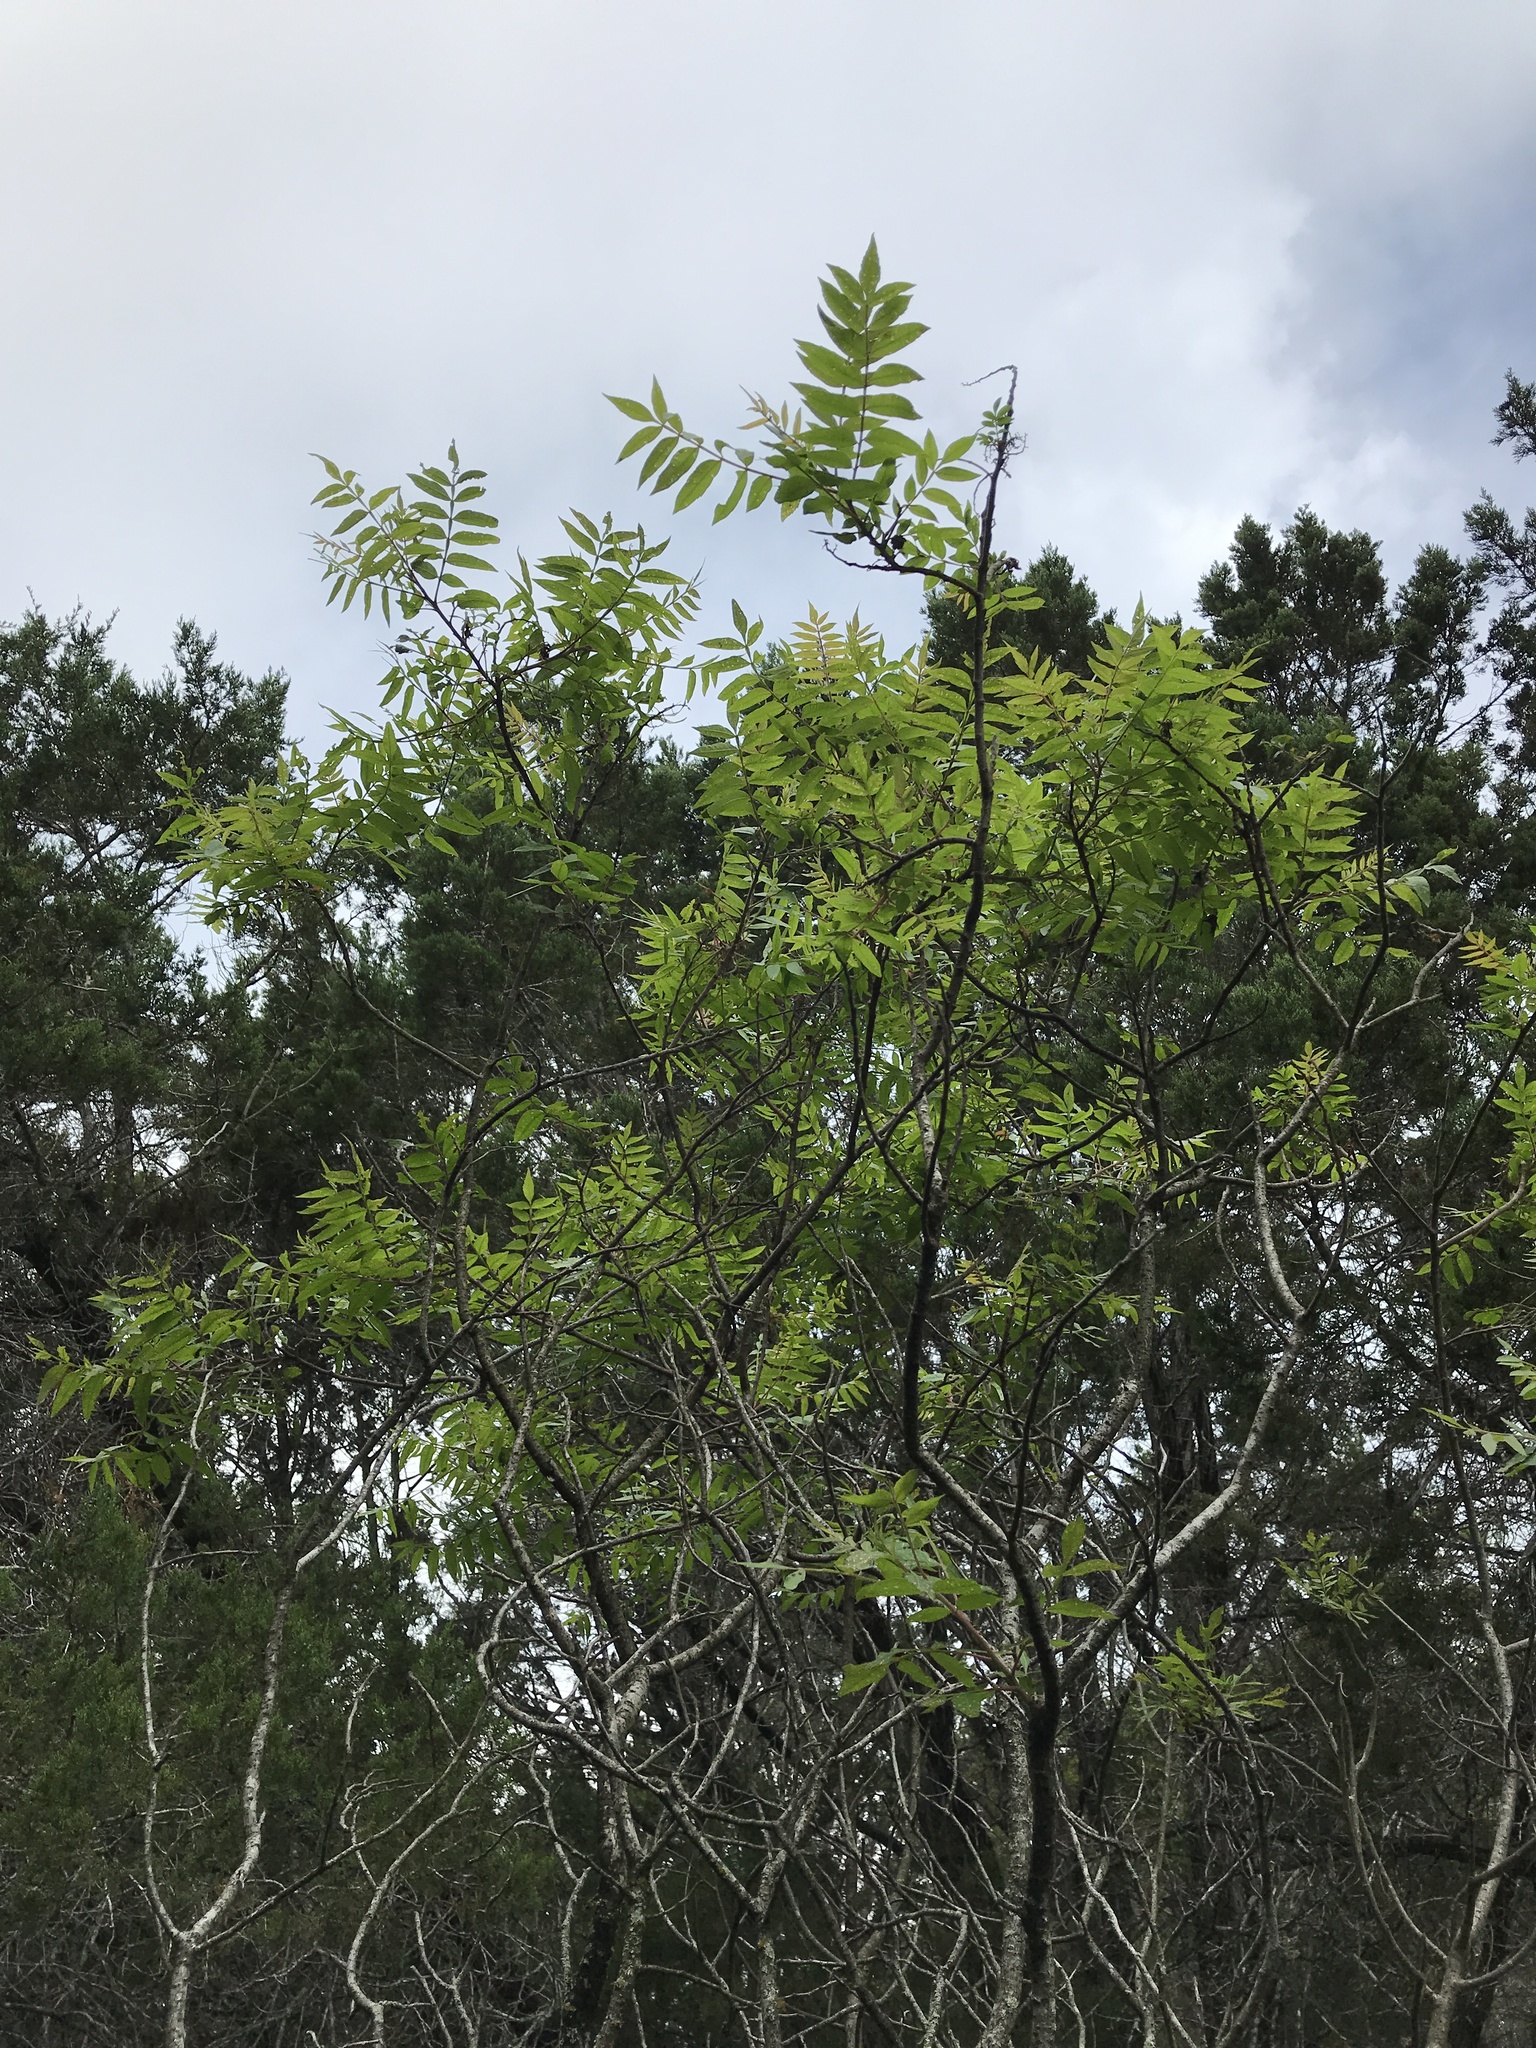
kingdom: Plantae
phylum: Tracheophyta
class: Magnoliopsida
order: Sapindales
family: Anacardiaceae
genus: Rhus
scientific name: Rhus lanceolata
